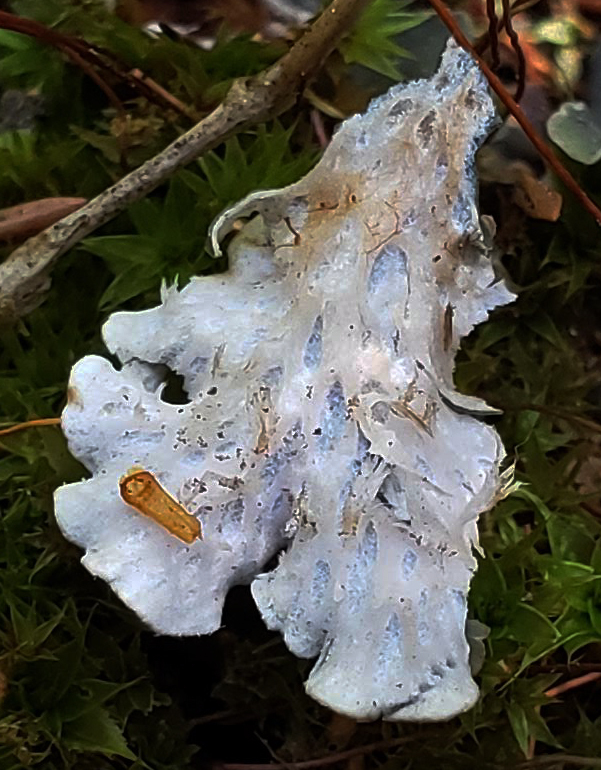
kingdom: Fungi
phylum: Ascomycota
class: Lecanoromycetes
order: Peltigerales
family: Peltigeraceae
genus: Peltigera
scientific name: Peltigera praetextata
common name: Scaly dog-lichen
